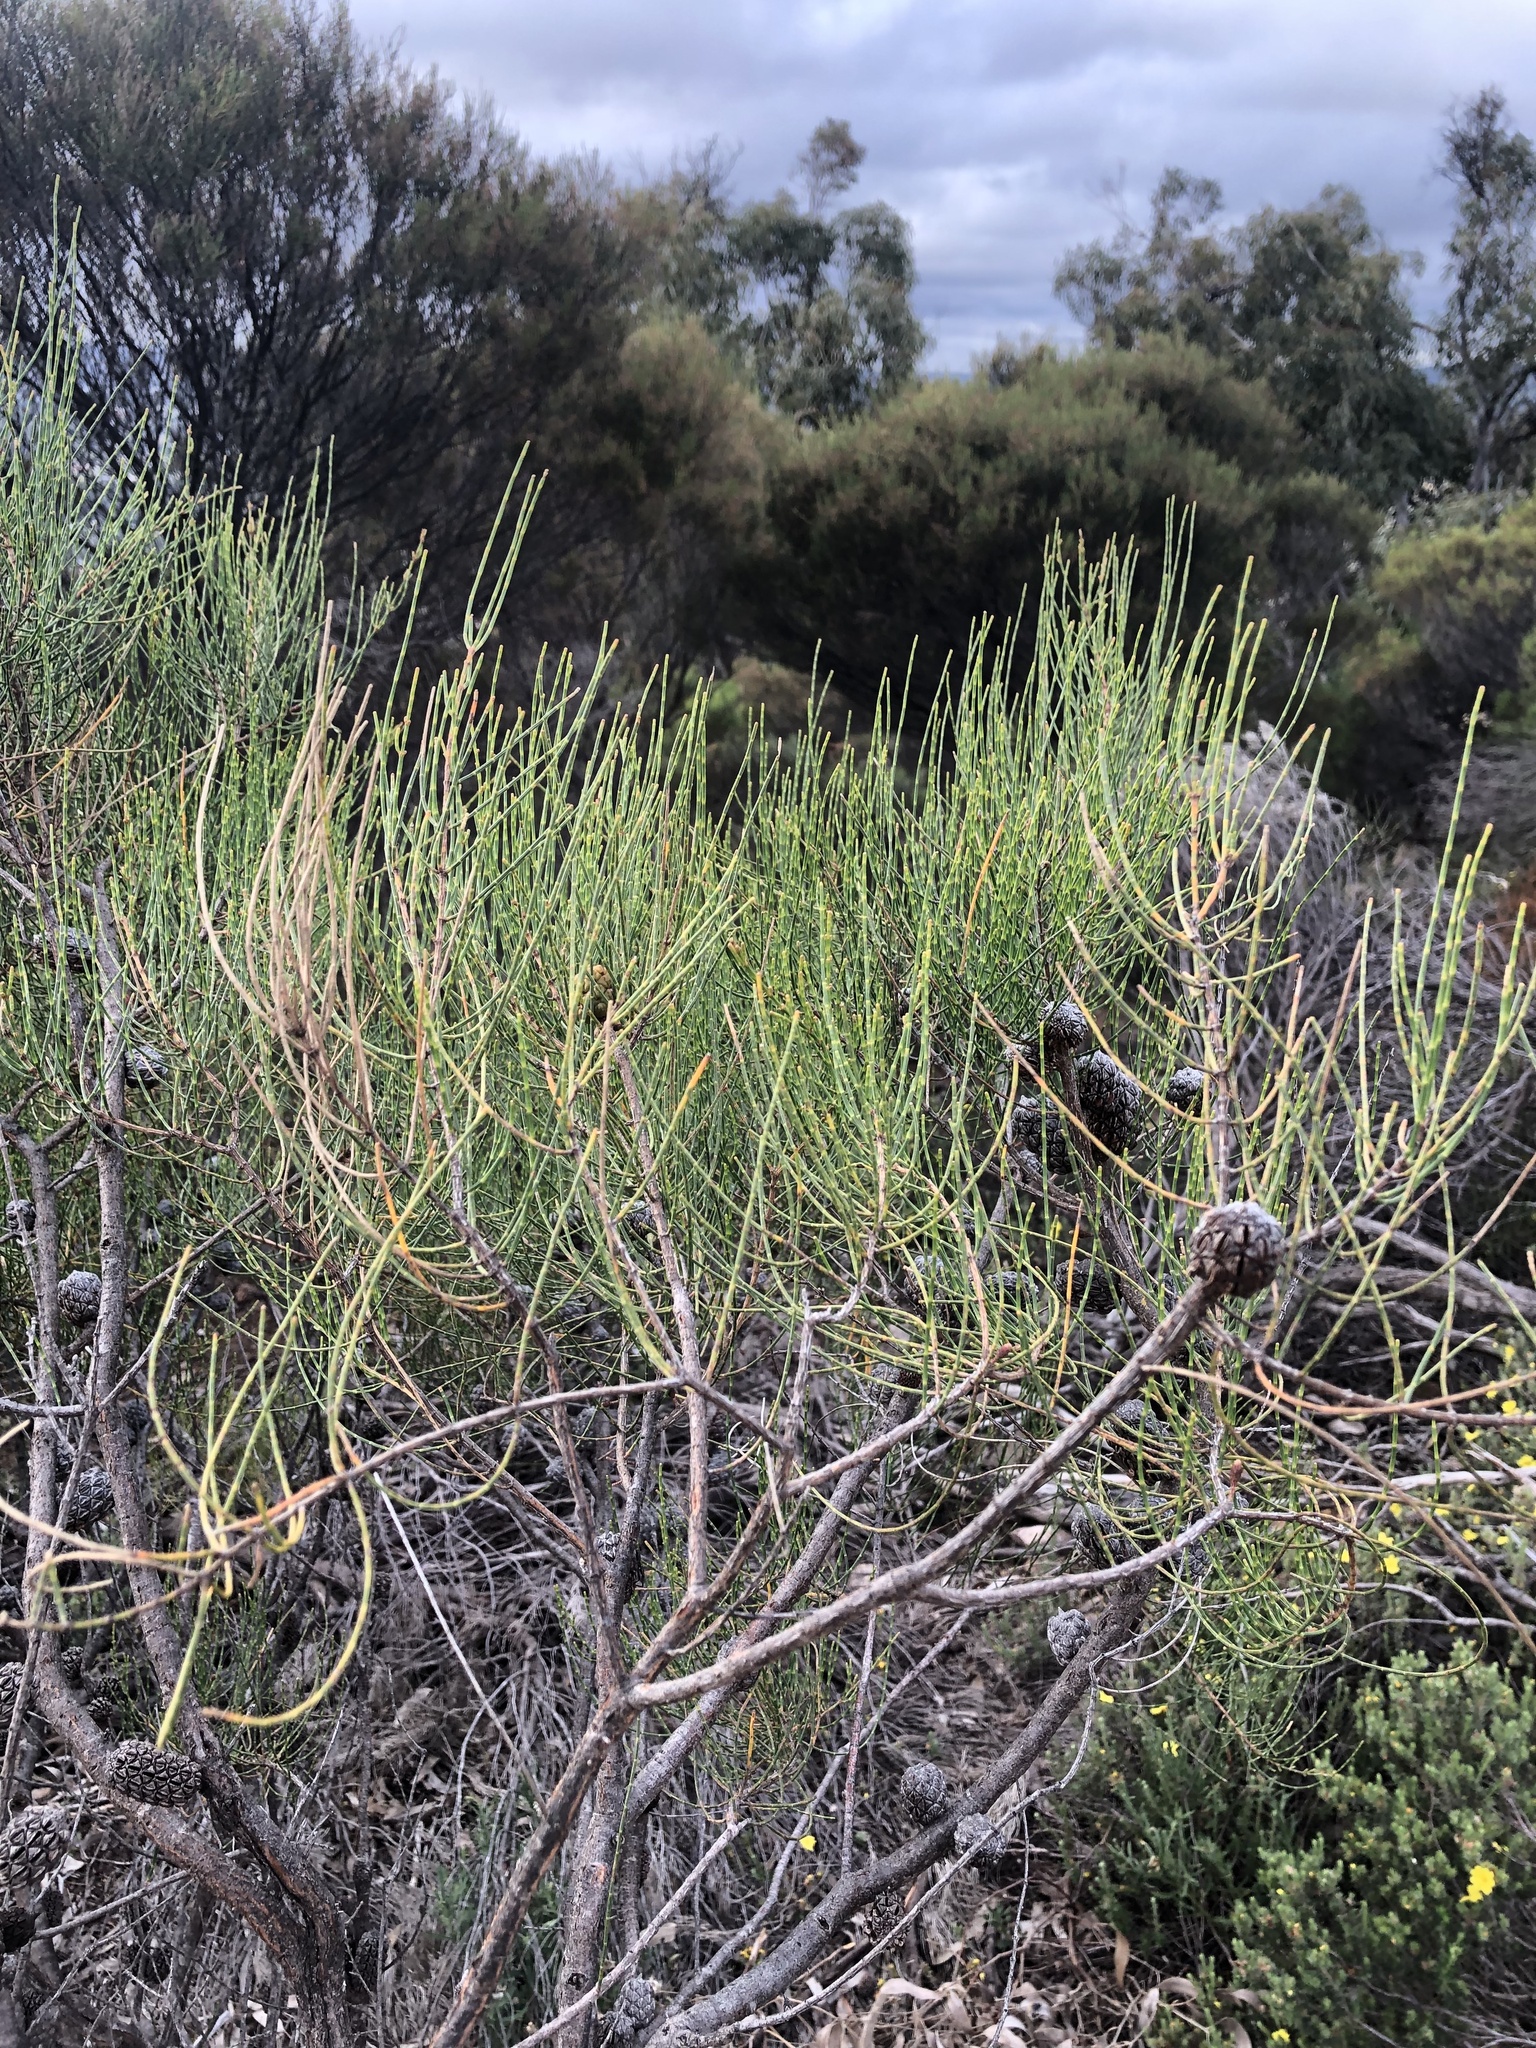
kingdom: Plantae
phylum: Tracheophyta
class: Magnoliopsida
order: Fagales
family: Casuarinaceae
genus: Allocasuarina
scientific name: Allocasuarina muelleriana
